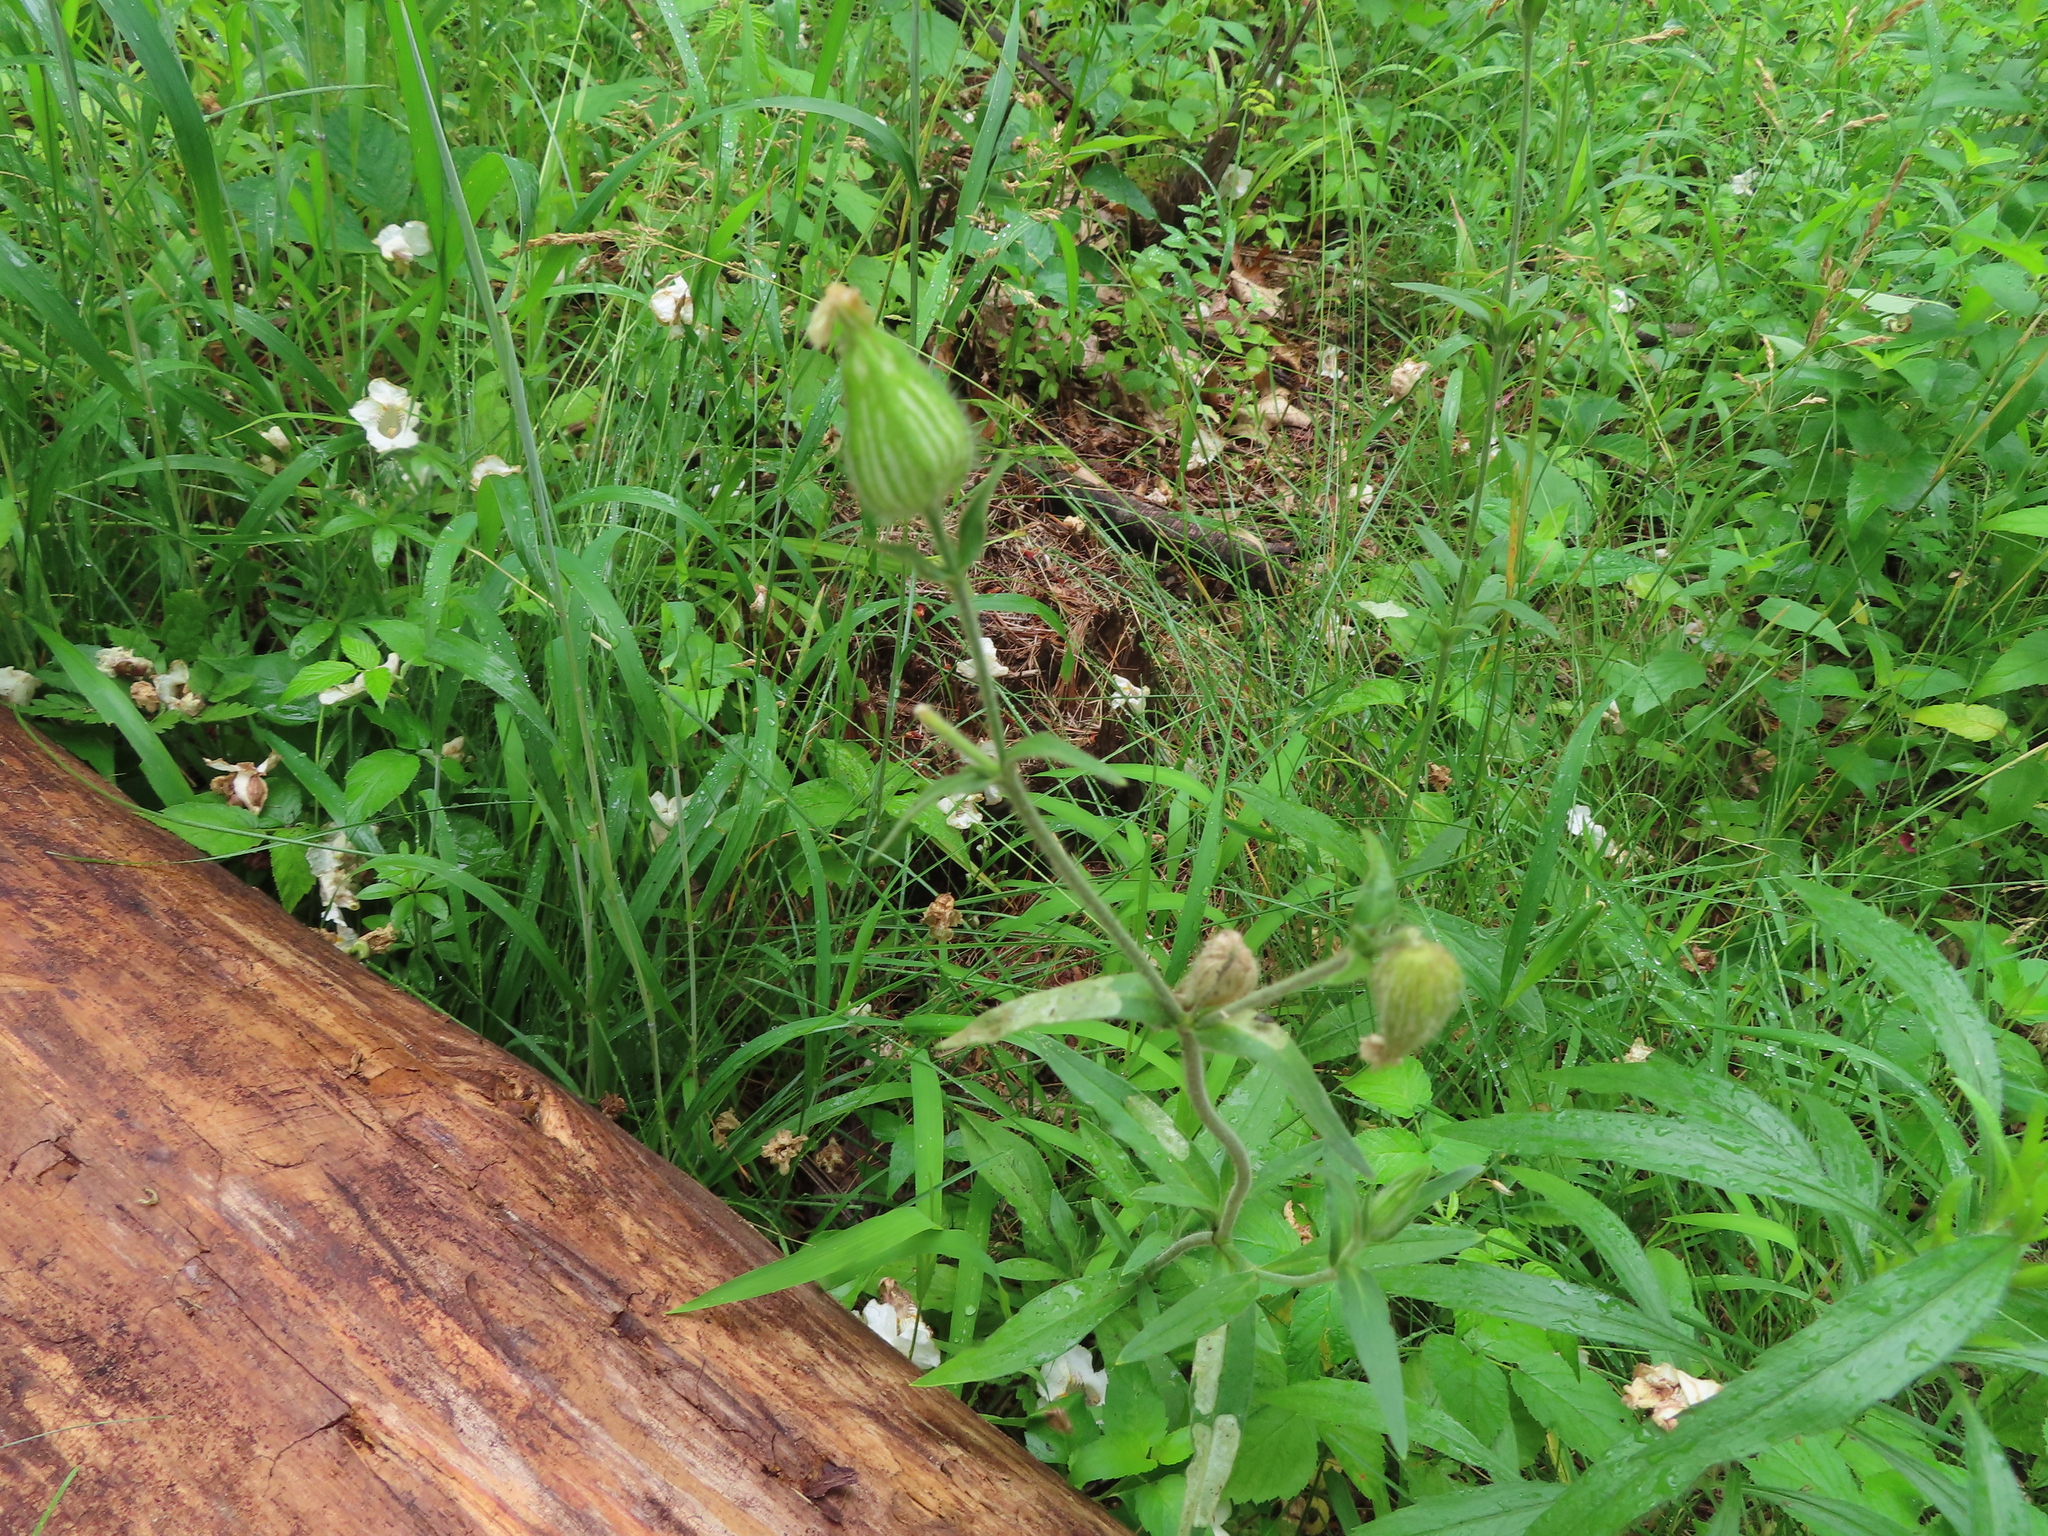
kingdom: Plantae
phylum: Tracheophyta
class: Magnoliopsida
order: Caryophyllales
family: Caryophyllaceae
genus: Silene
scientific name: Silene latifolia
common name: White campion
